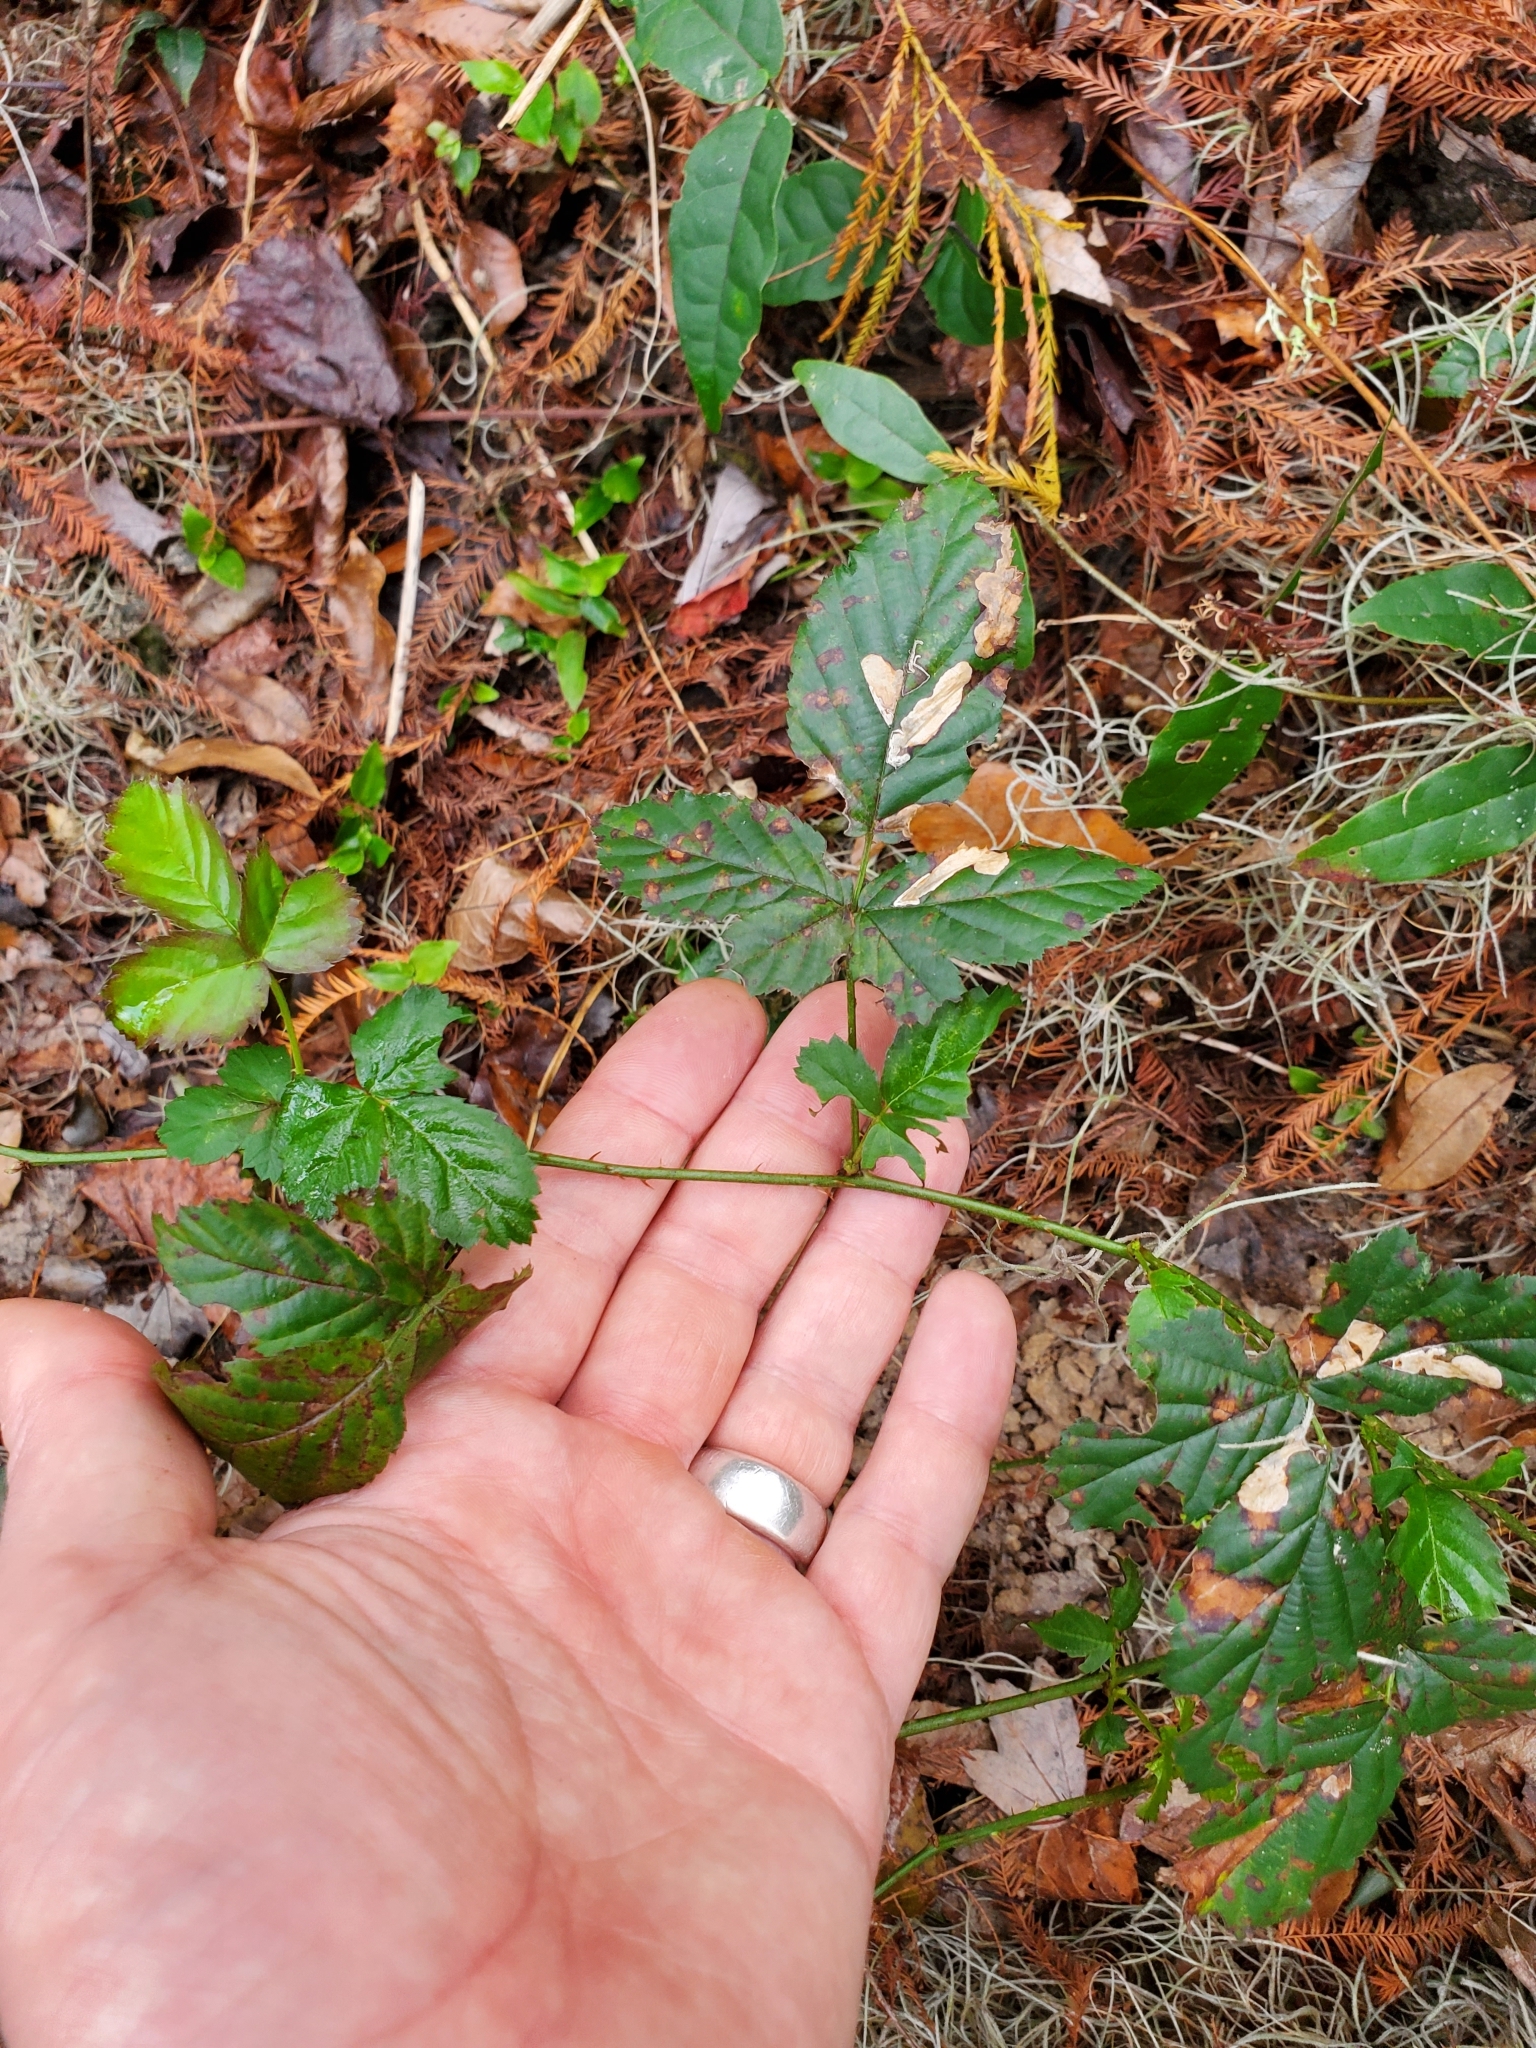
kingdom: Plantae
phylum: Tracheophyta
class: Magnoliopsida
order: Rosales
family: Rosaceae
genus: Rubus
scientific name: Rubus trivialis
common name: Southern dewberry
